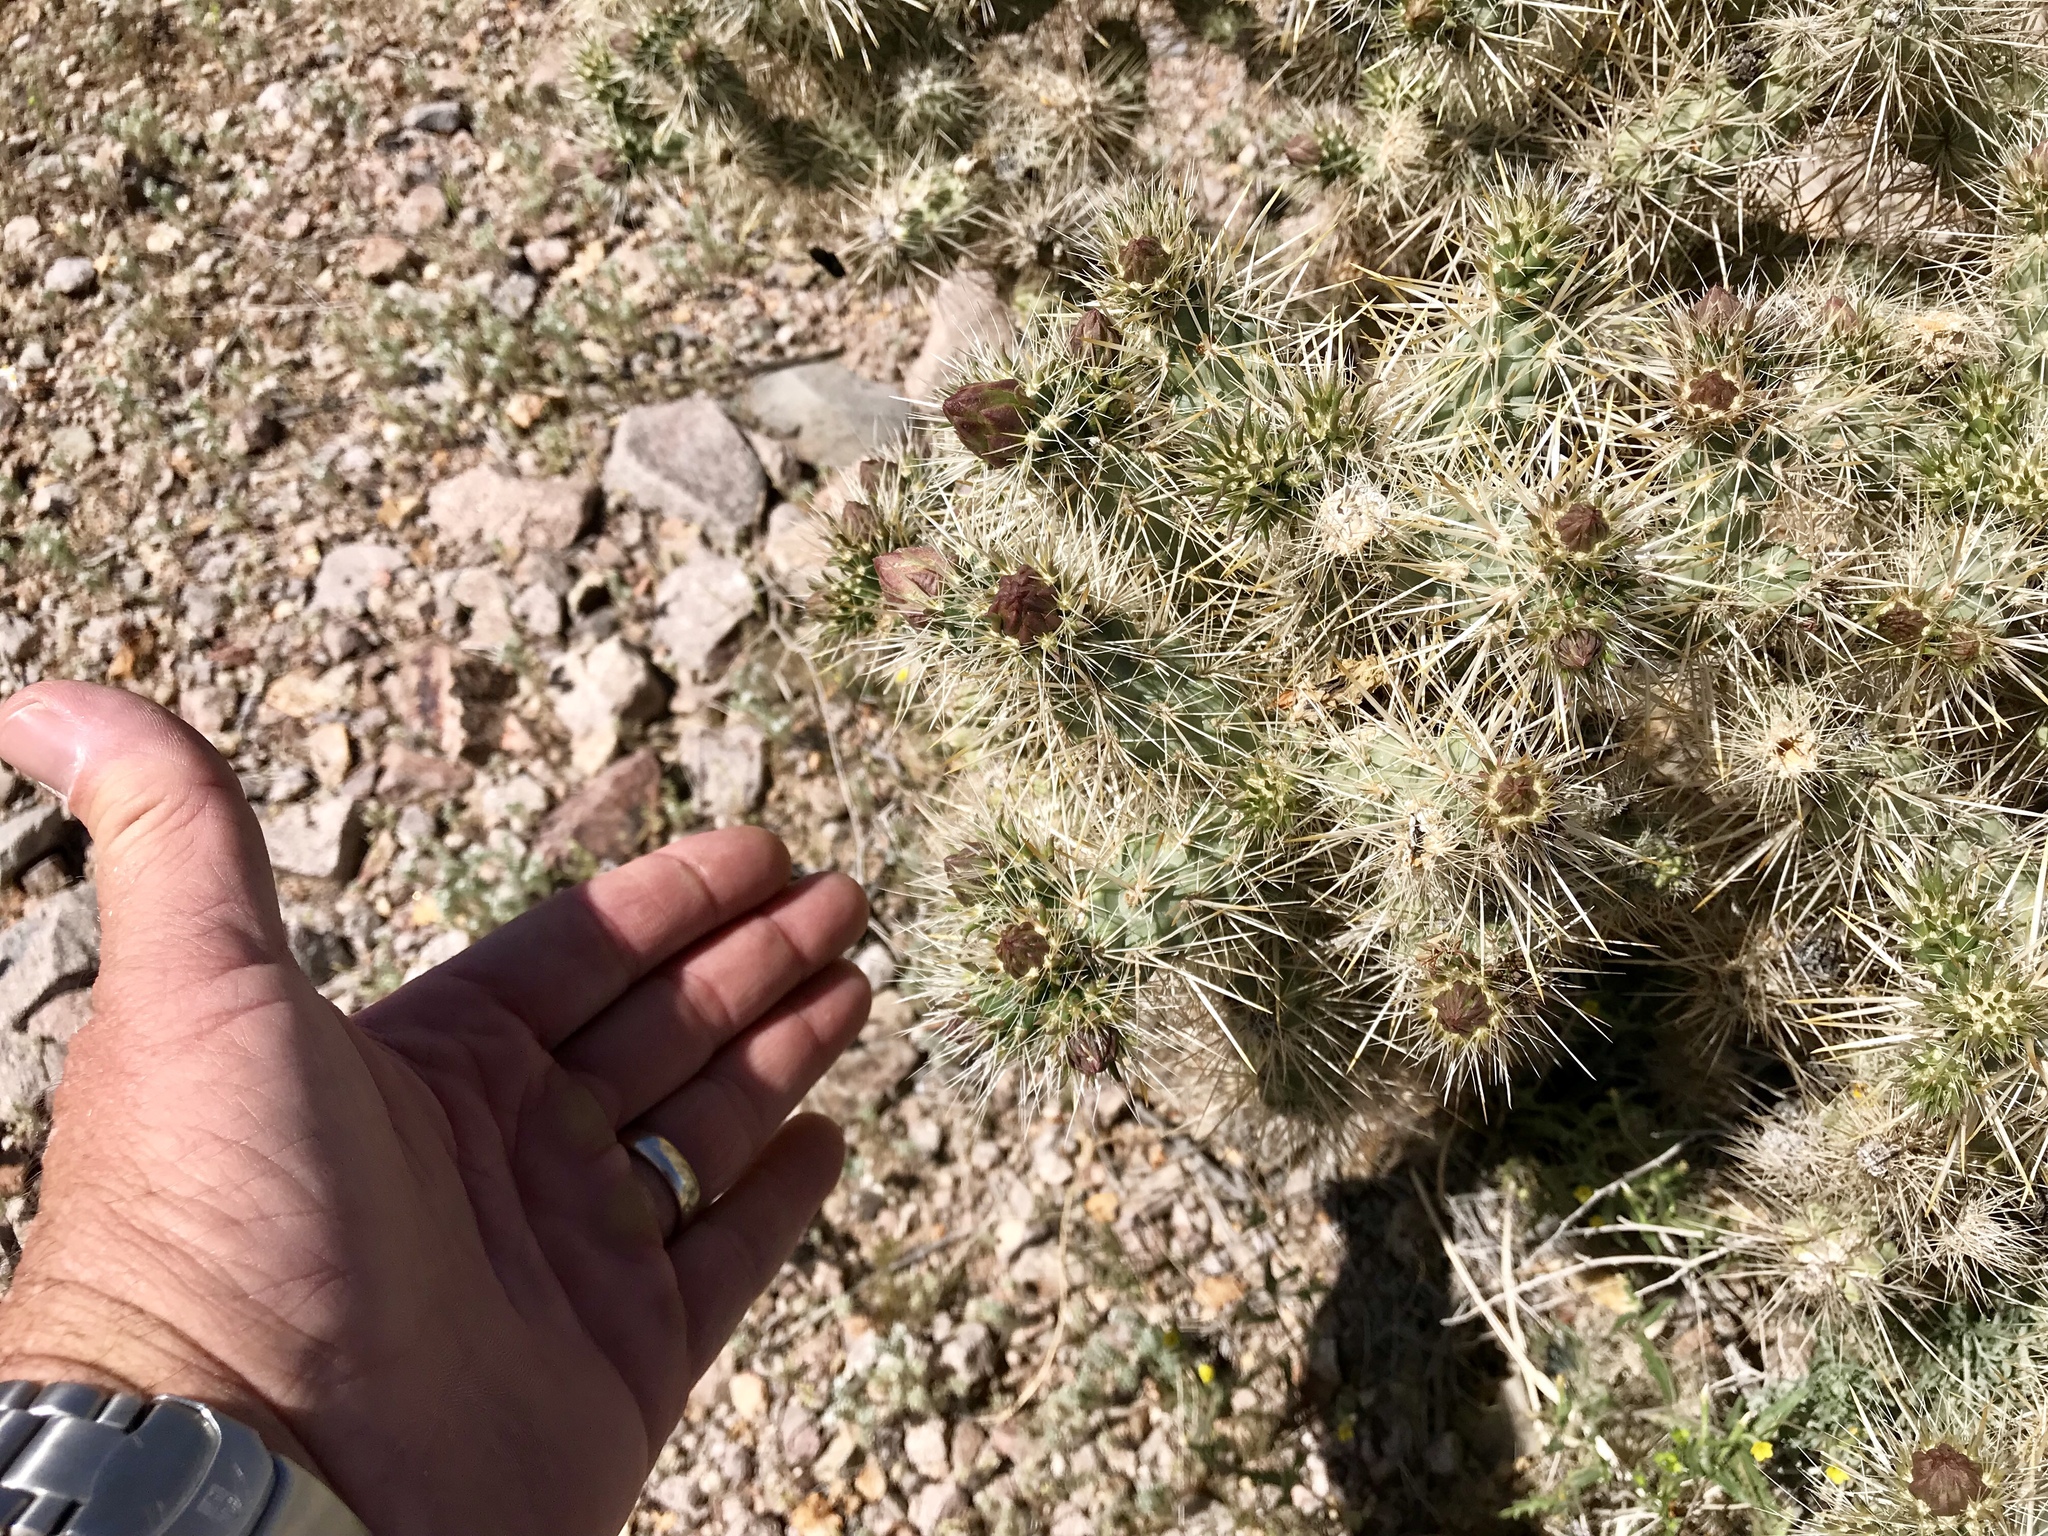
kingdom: Plantae
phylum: Tracheophyta
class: Magnoliopsida
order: Caryophyllales
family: Cactaceae
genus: Cylindropuntia
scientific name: Cylindropuntia echinocarpa
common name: Ground cholla
